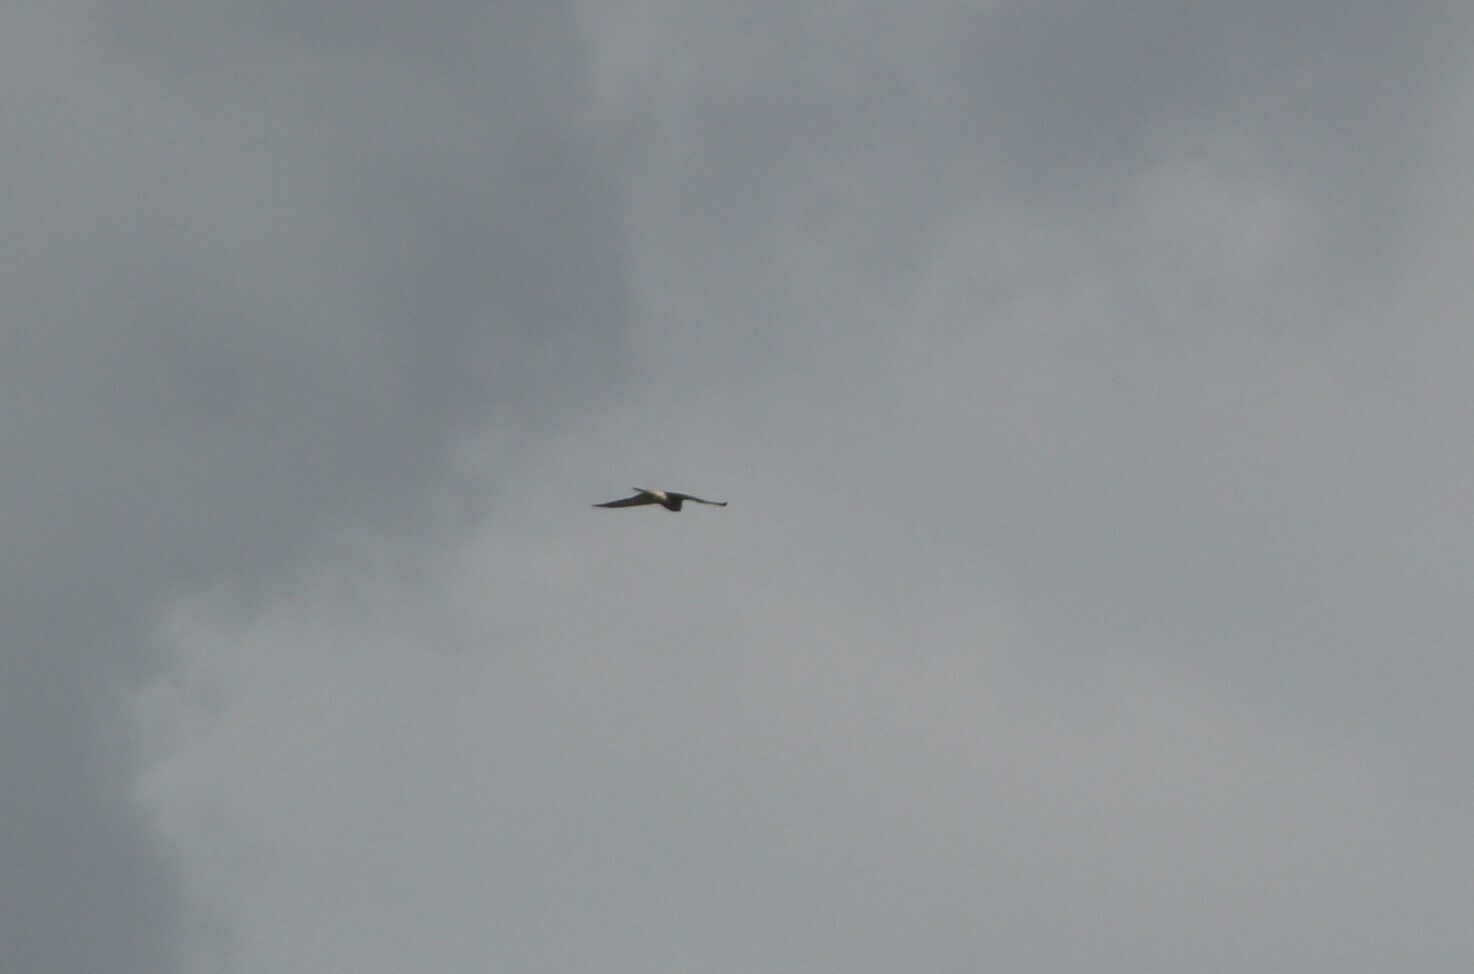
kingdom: Animalia
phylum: Chordata
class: Aves
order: Falconiformes
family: Falconidae
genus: Falco
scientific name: Falco tinnunculus
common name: Common kestrel
